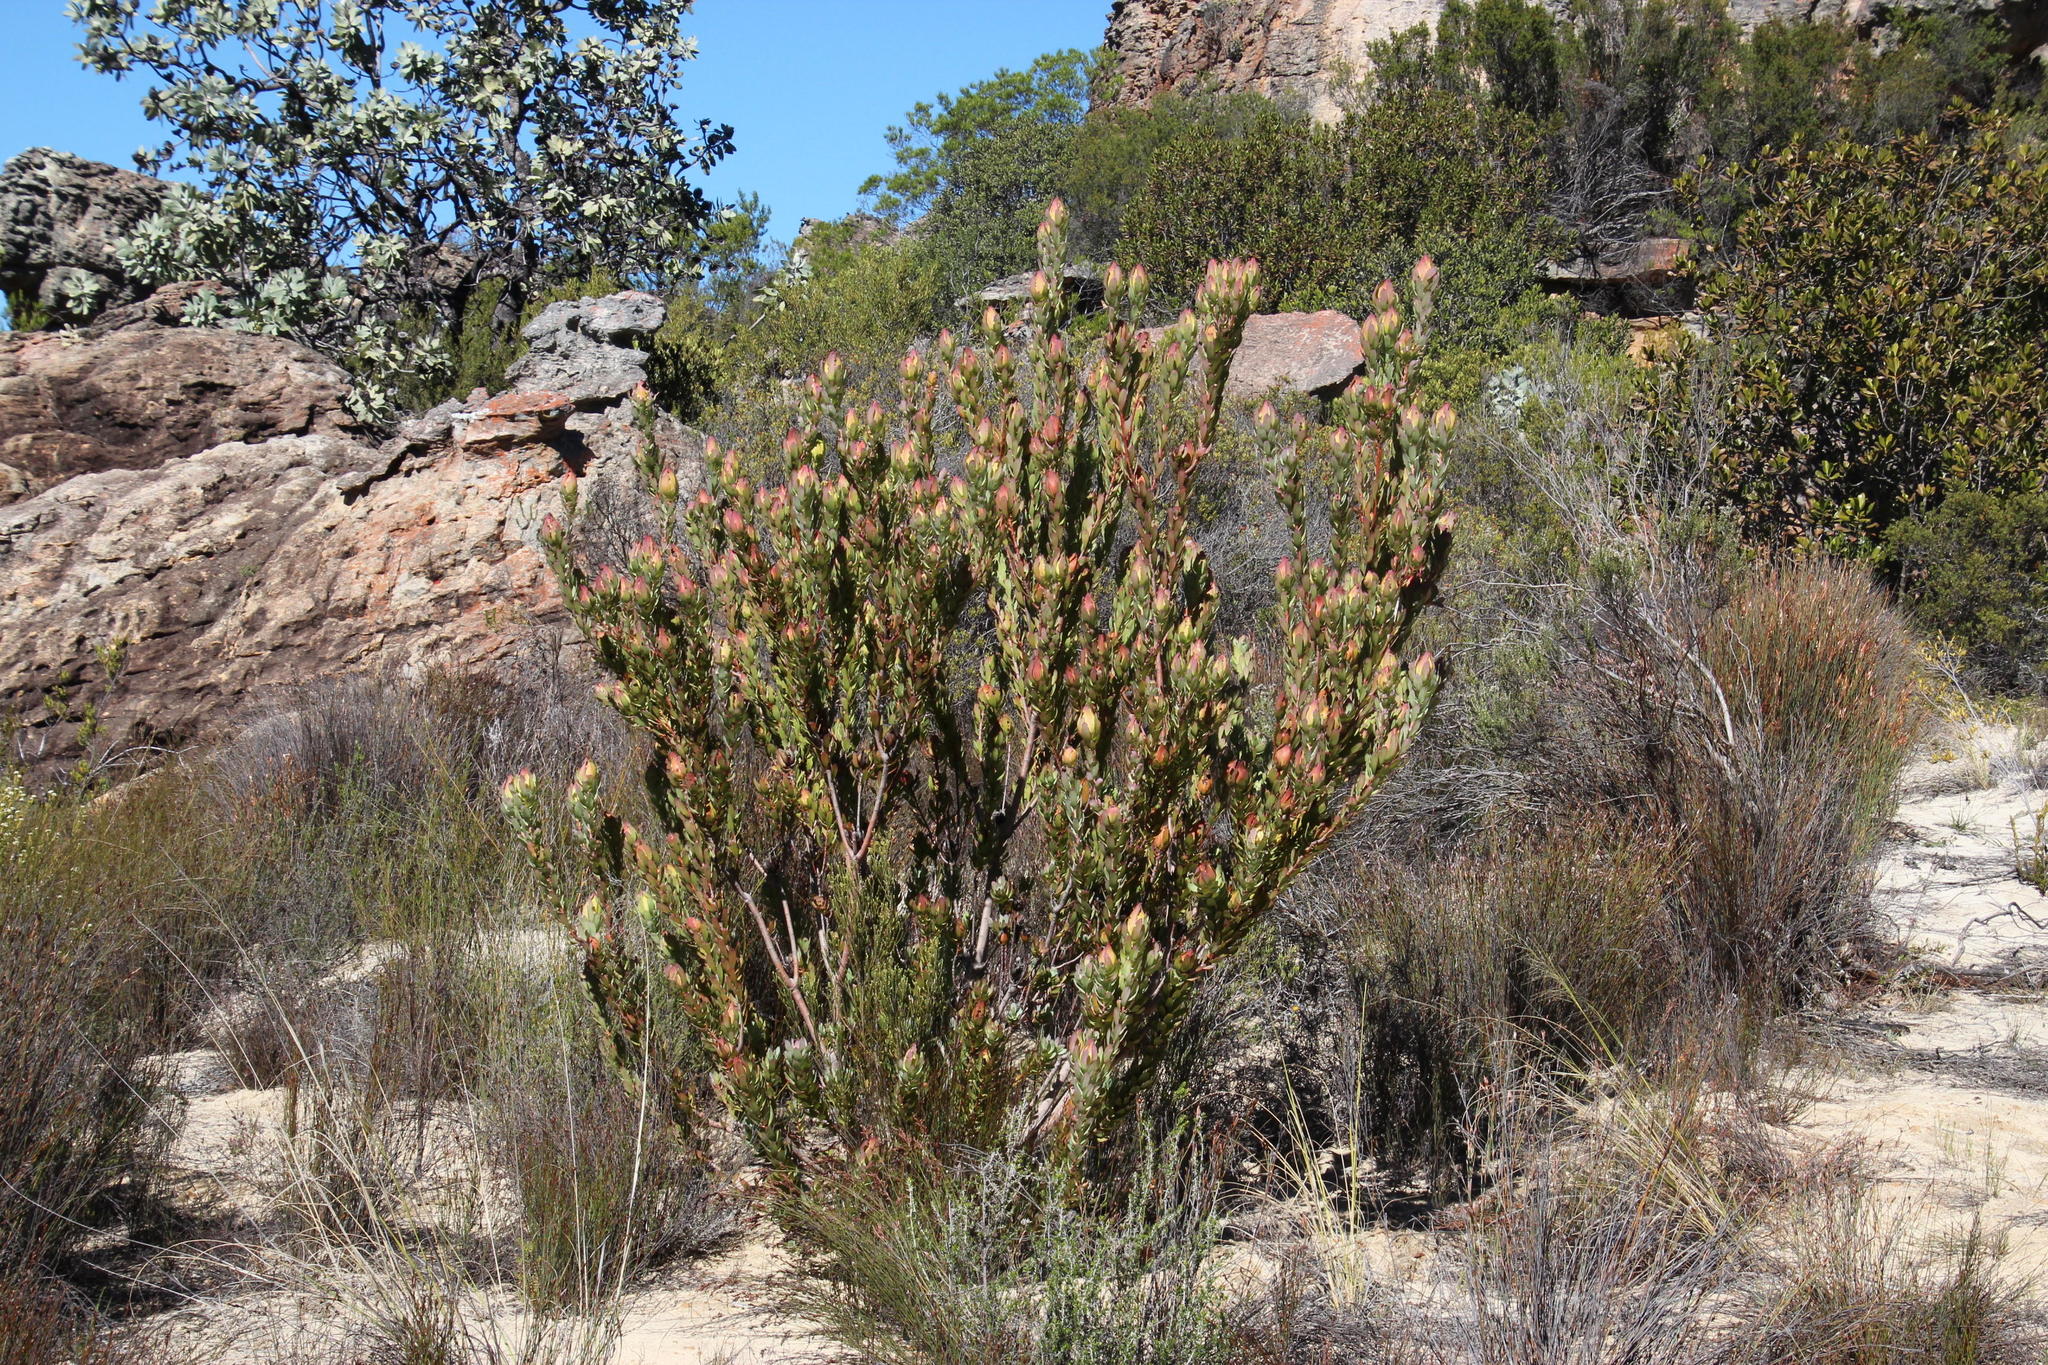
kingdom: Plantae
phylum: Tracheophyta
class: Magnoliopsida
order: Proteales
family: Proteaceae
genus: Leucadendron
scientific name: Leucadendron procerum
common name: Ivory conebush
